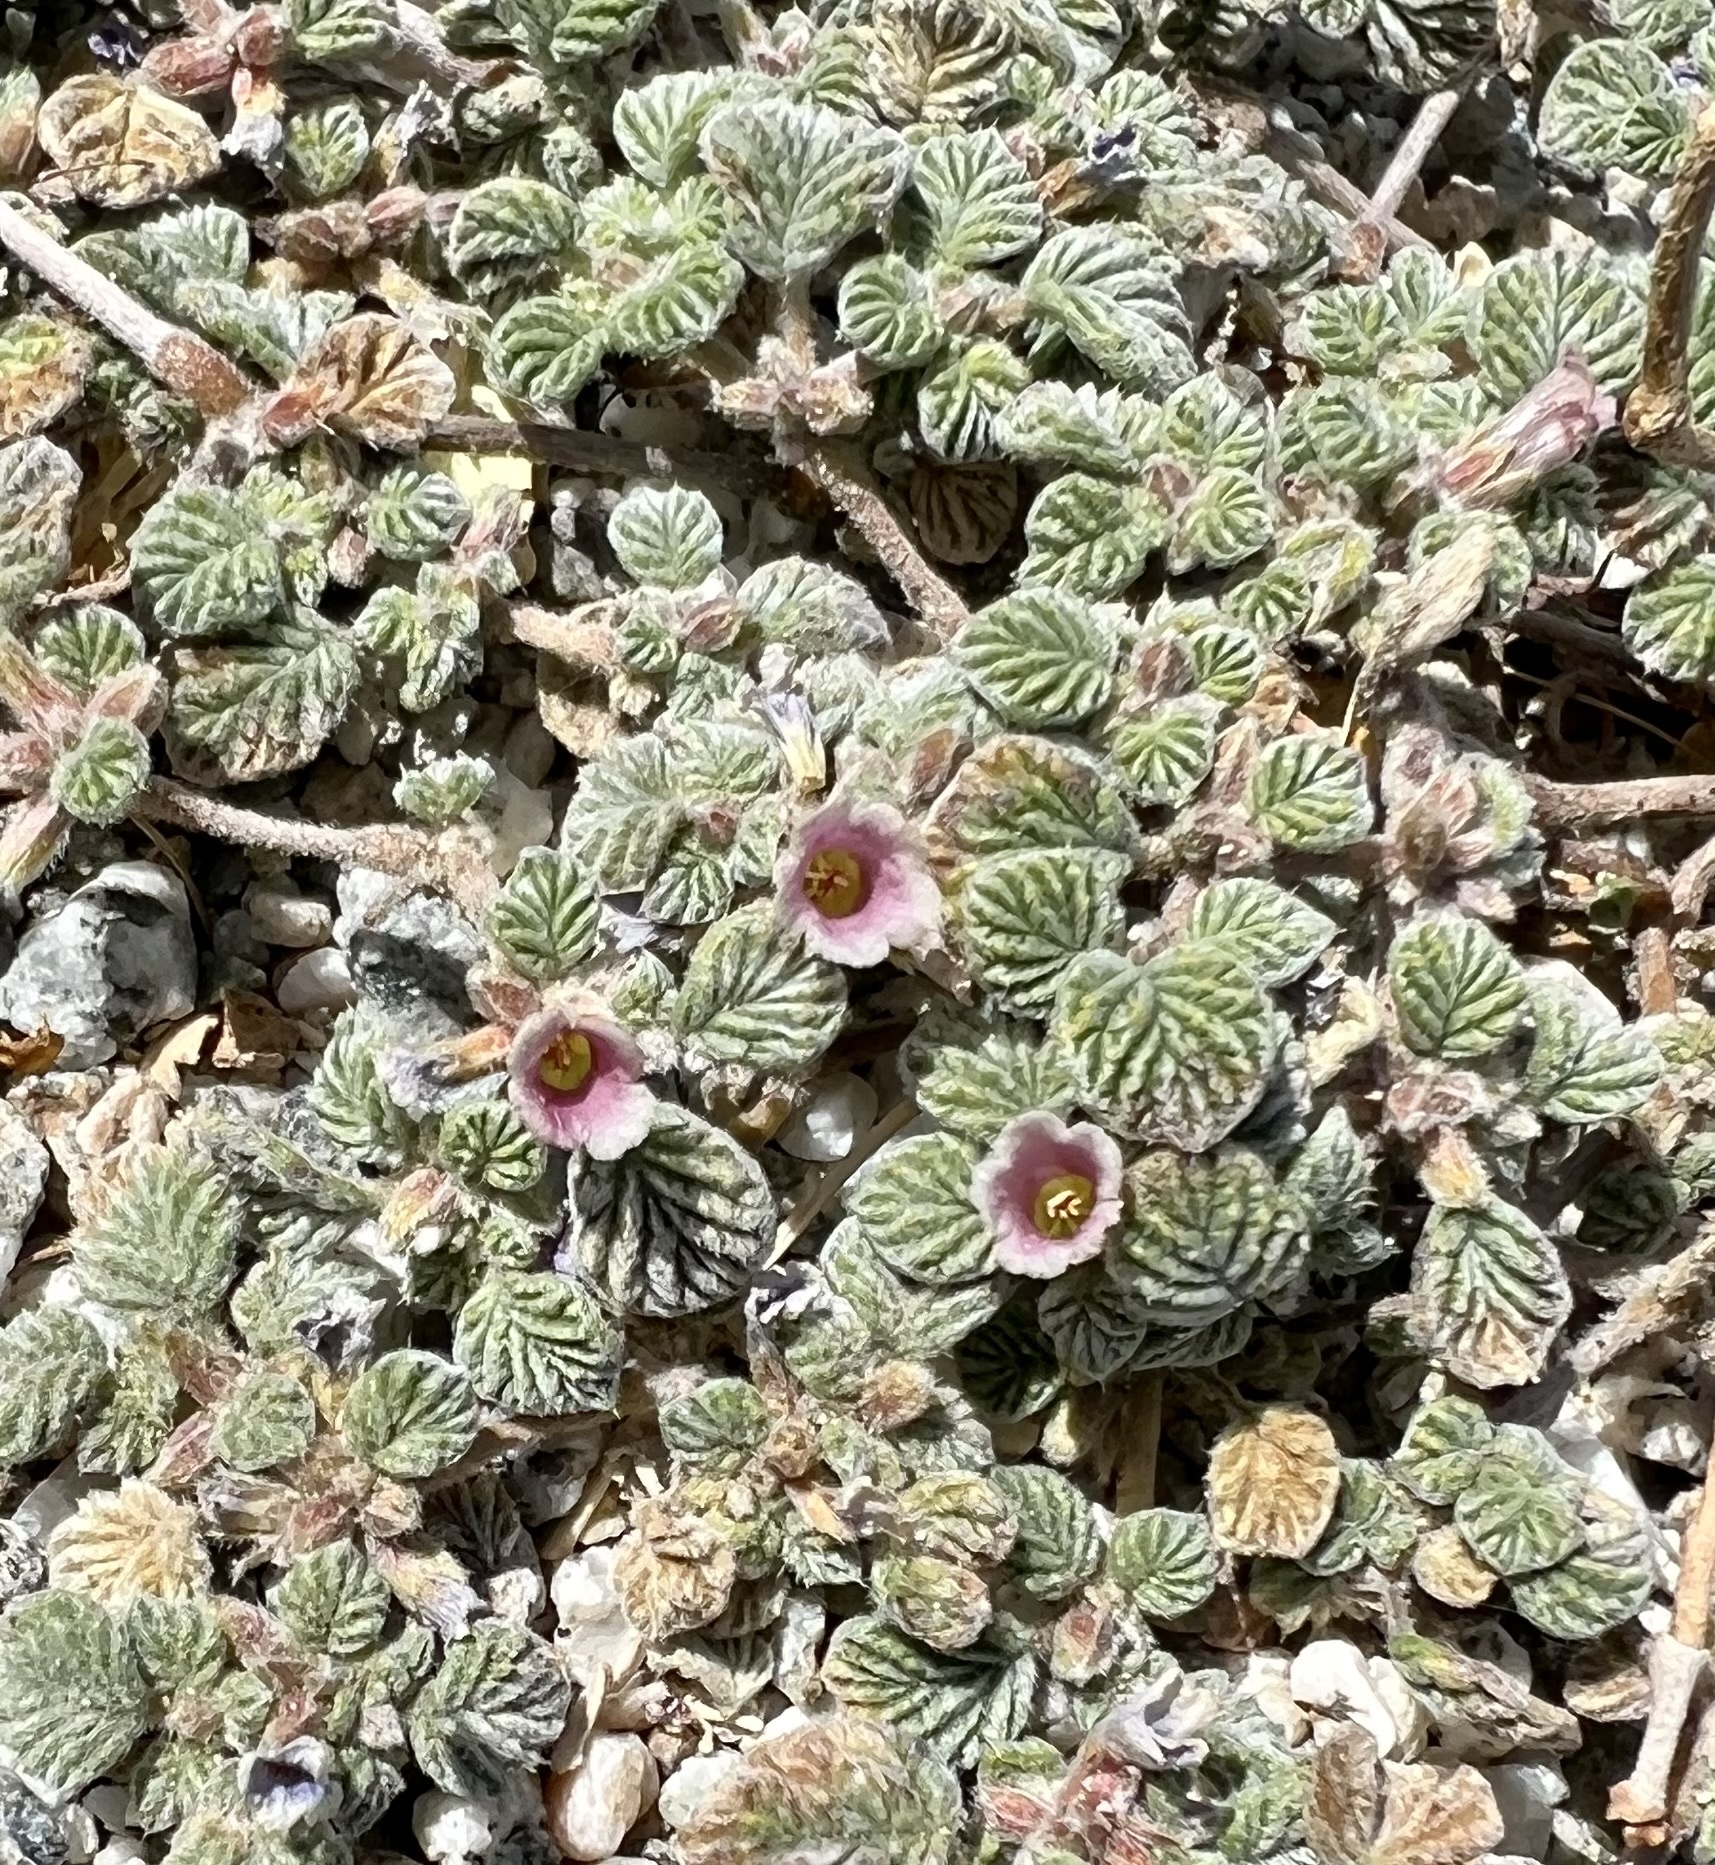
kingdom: Plantae
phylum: Tracheophyta
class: Magnoliopsida
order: Boraginales
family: Ehretiaceae
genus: Tiquilia
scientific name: Tiquilia plicata
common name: Fan-leaf tiquilia
